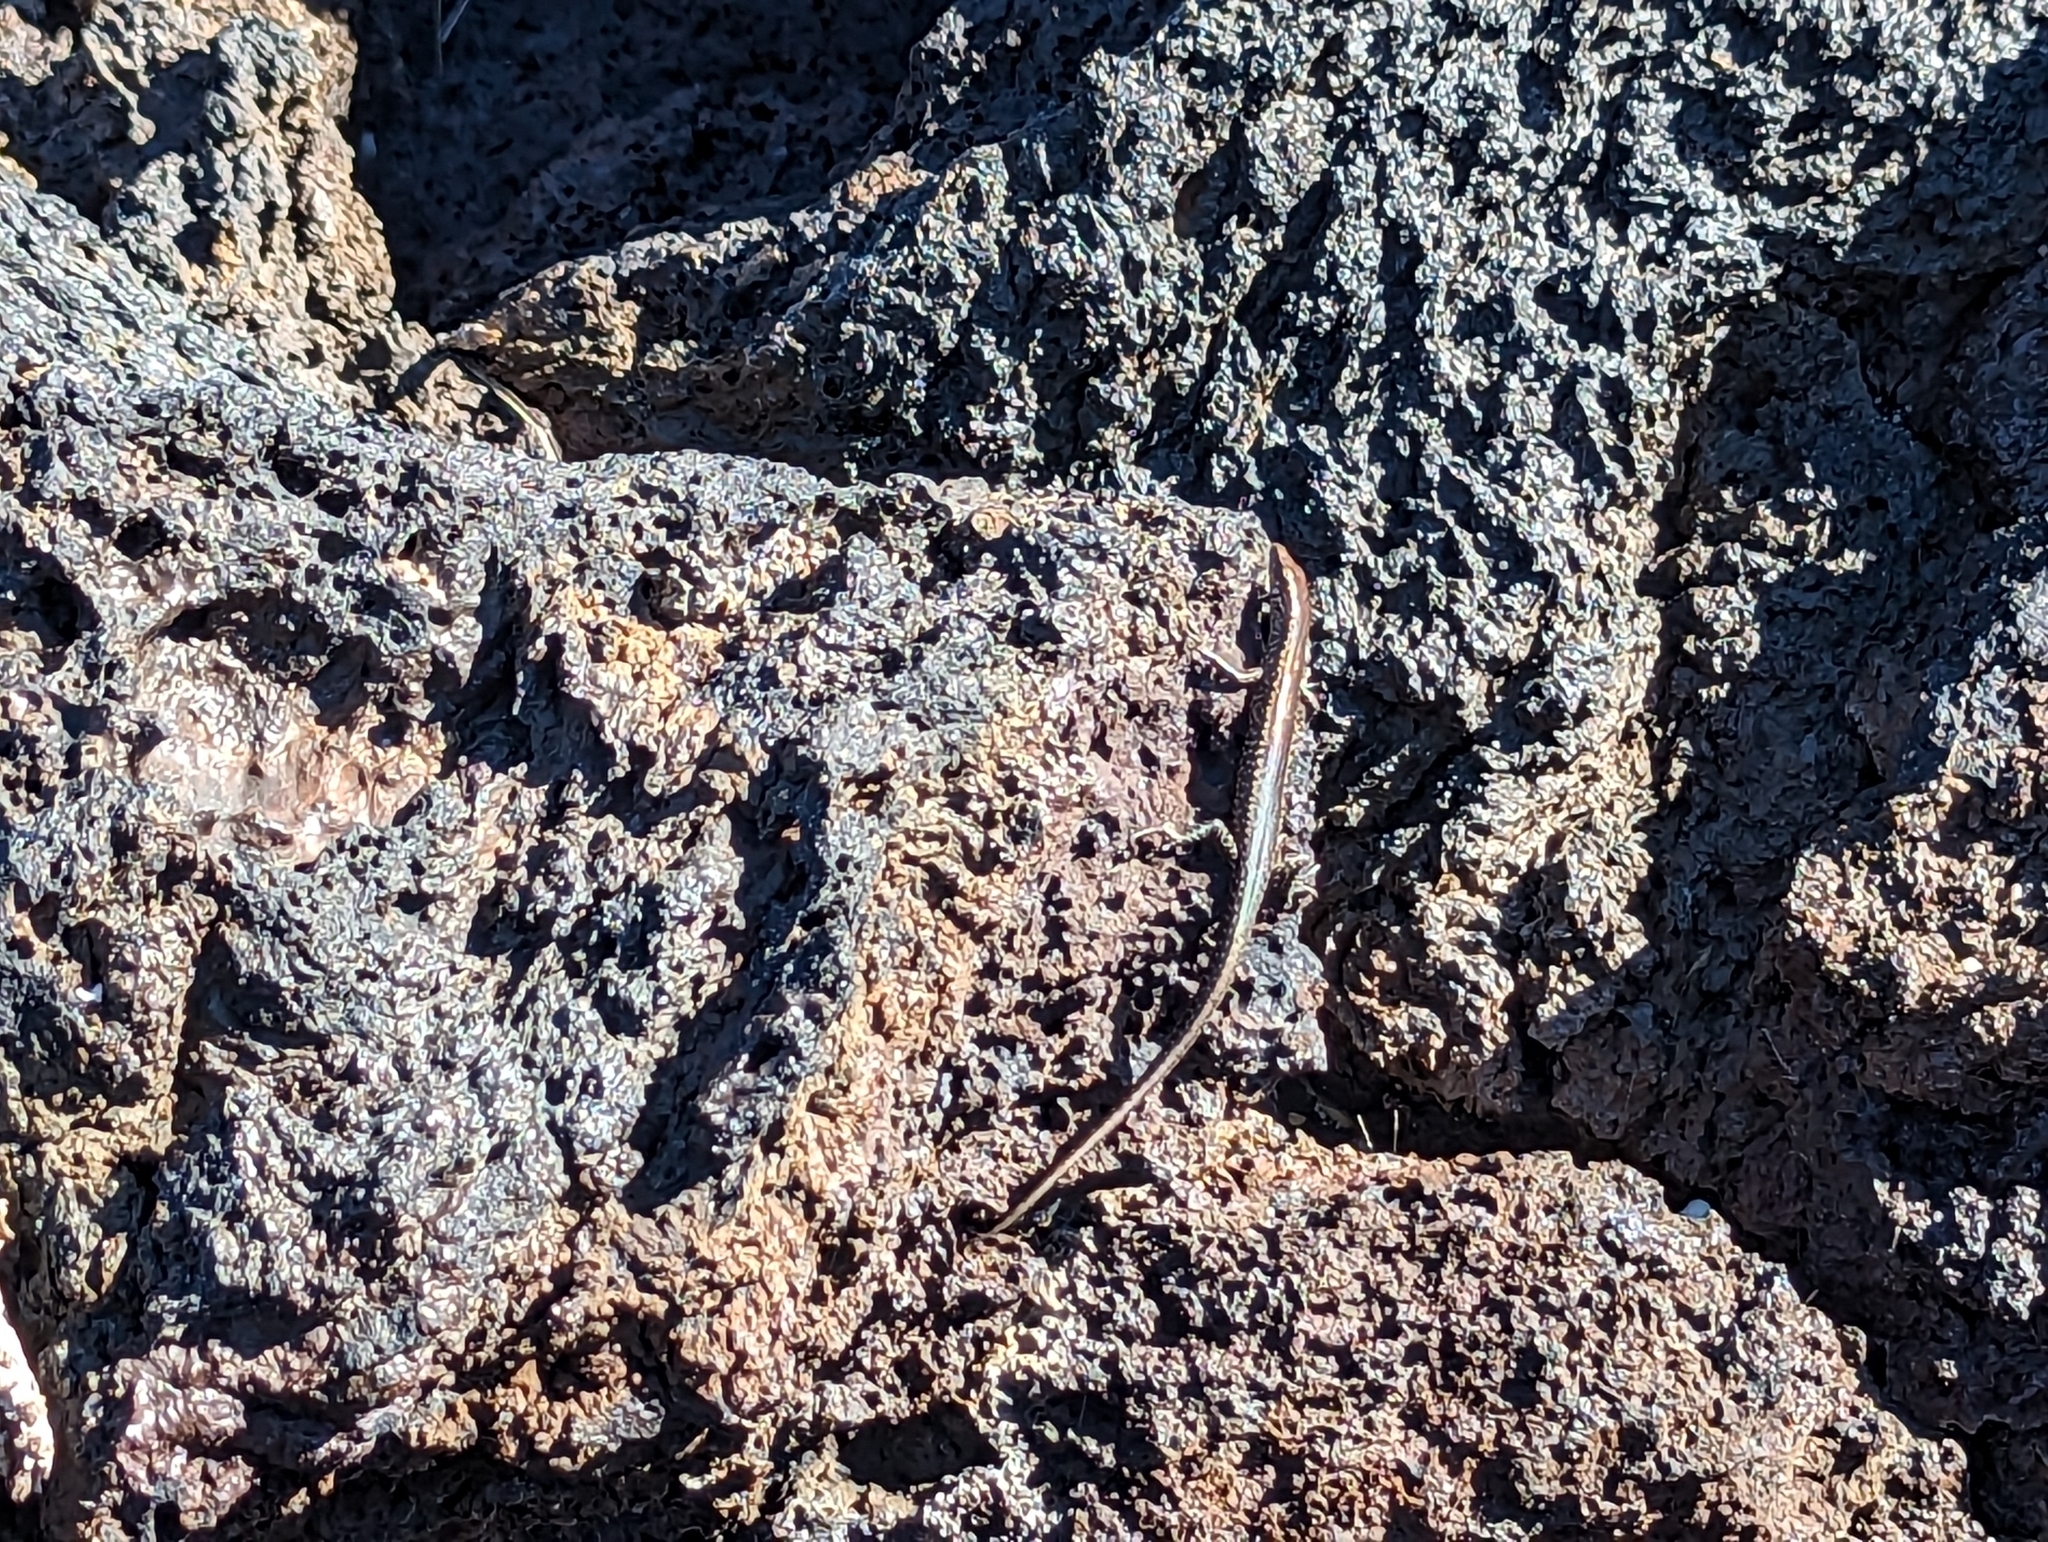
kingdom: Animalia
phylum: Chordata
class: Squamata
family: Scincidae
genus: Cryptoblepharus
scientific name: Cryptoblepharus poecilopleurus
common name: Mottled snake-eyed skink
